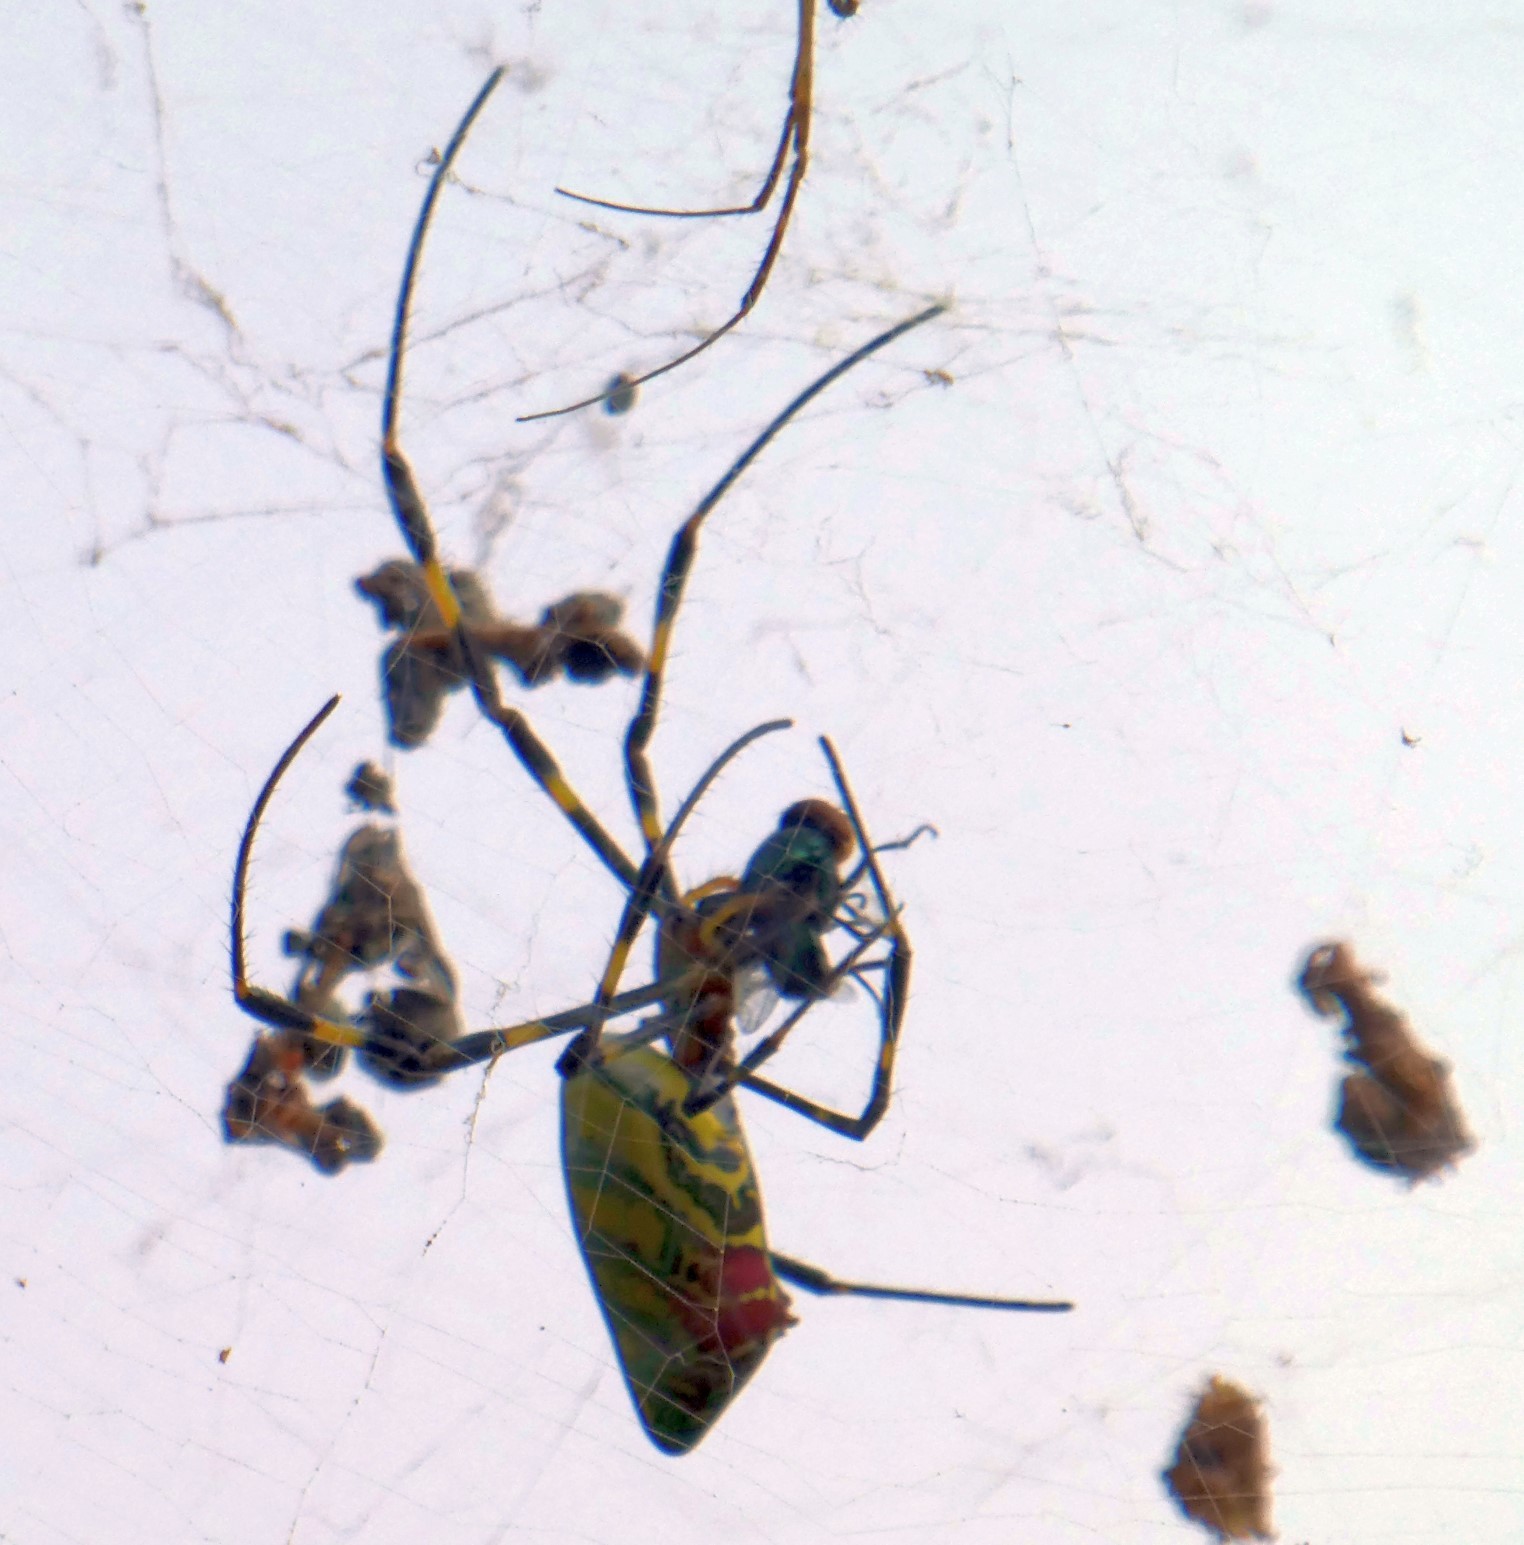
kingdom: Animalia
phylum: Arthropoda
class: Arachnida
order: Araneae
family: Araneidae
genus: Trichonephila
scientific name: Trichonephila clavata
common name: Jorō spider
